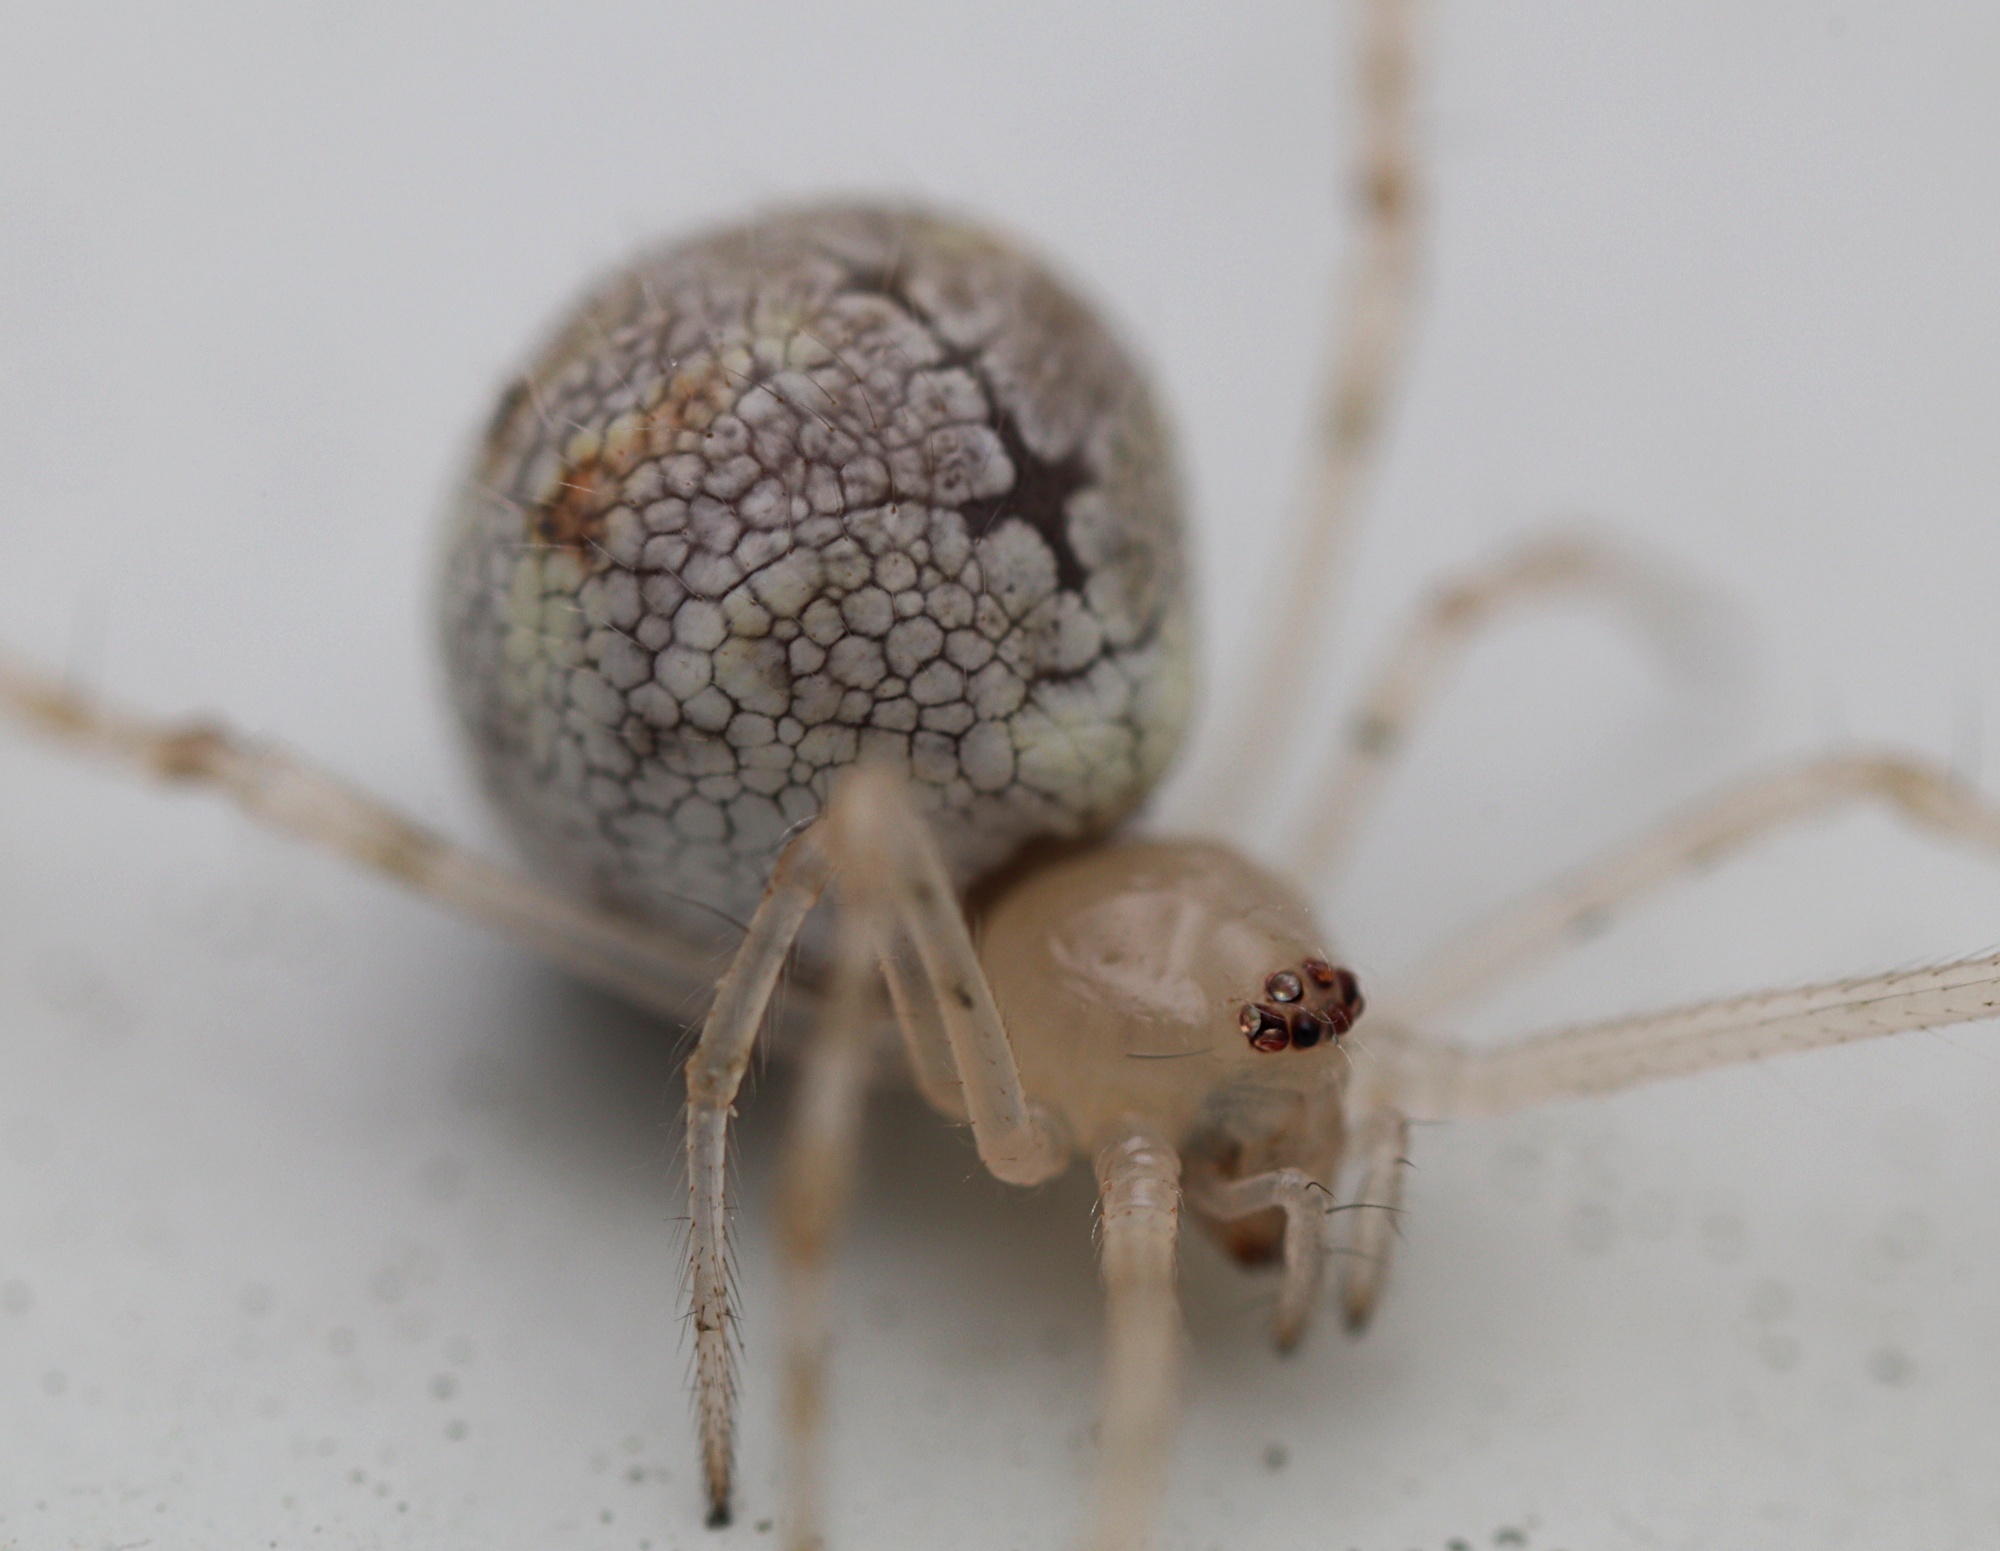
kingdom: Animalia
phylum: Arthropoda
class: Arachnida
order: Araneae
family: Theridiidae
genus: Cryptachaea
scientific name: Cryptachaea gigantipes
